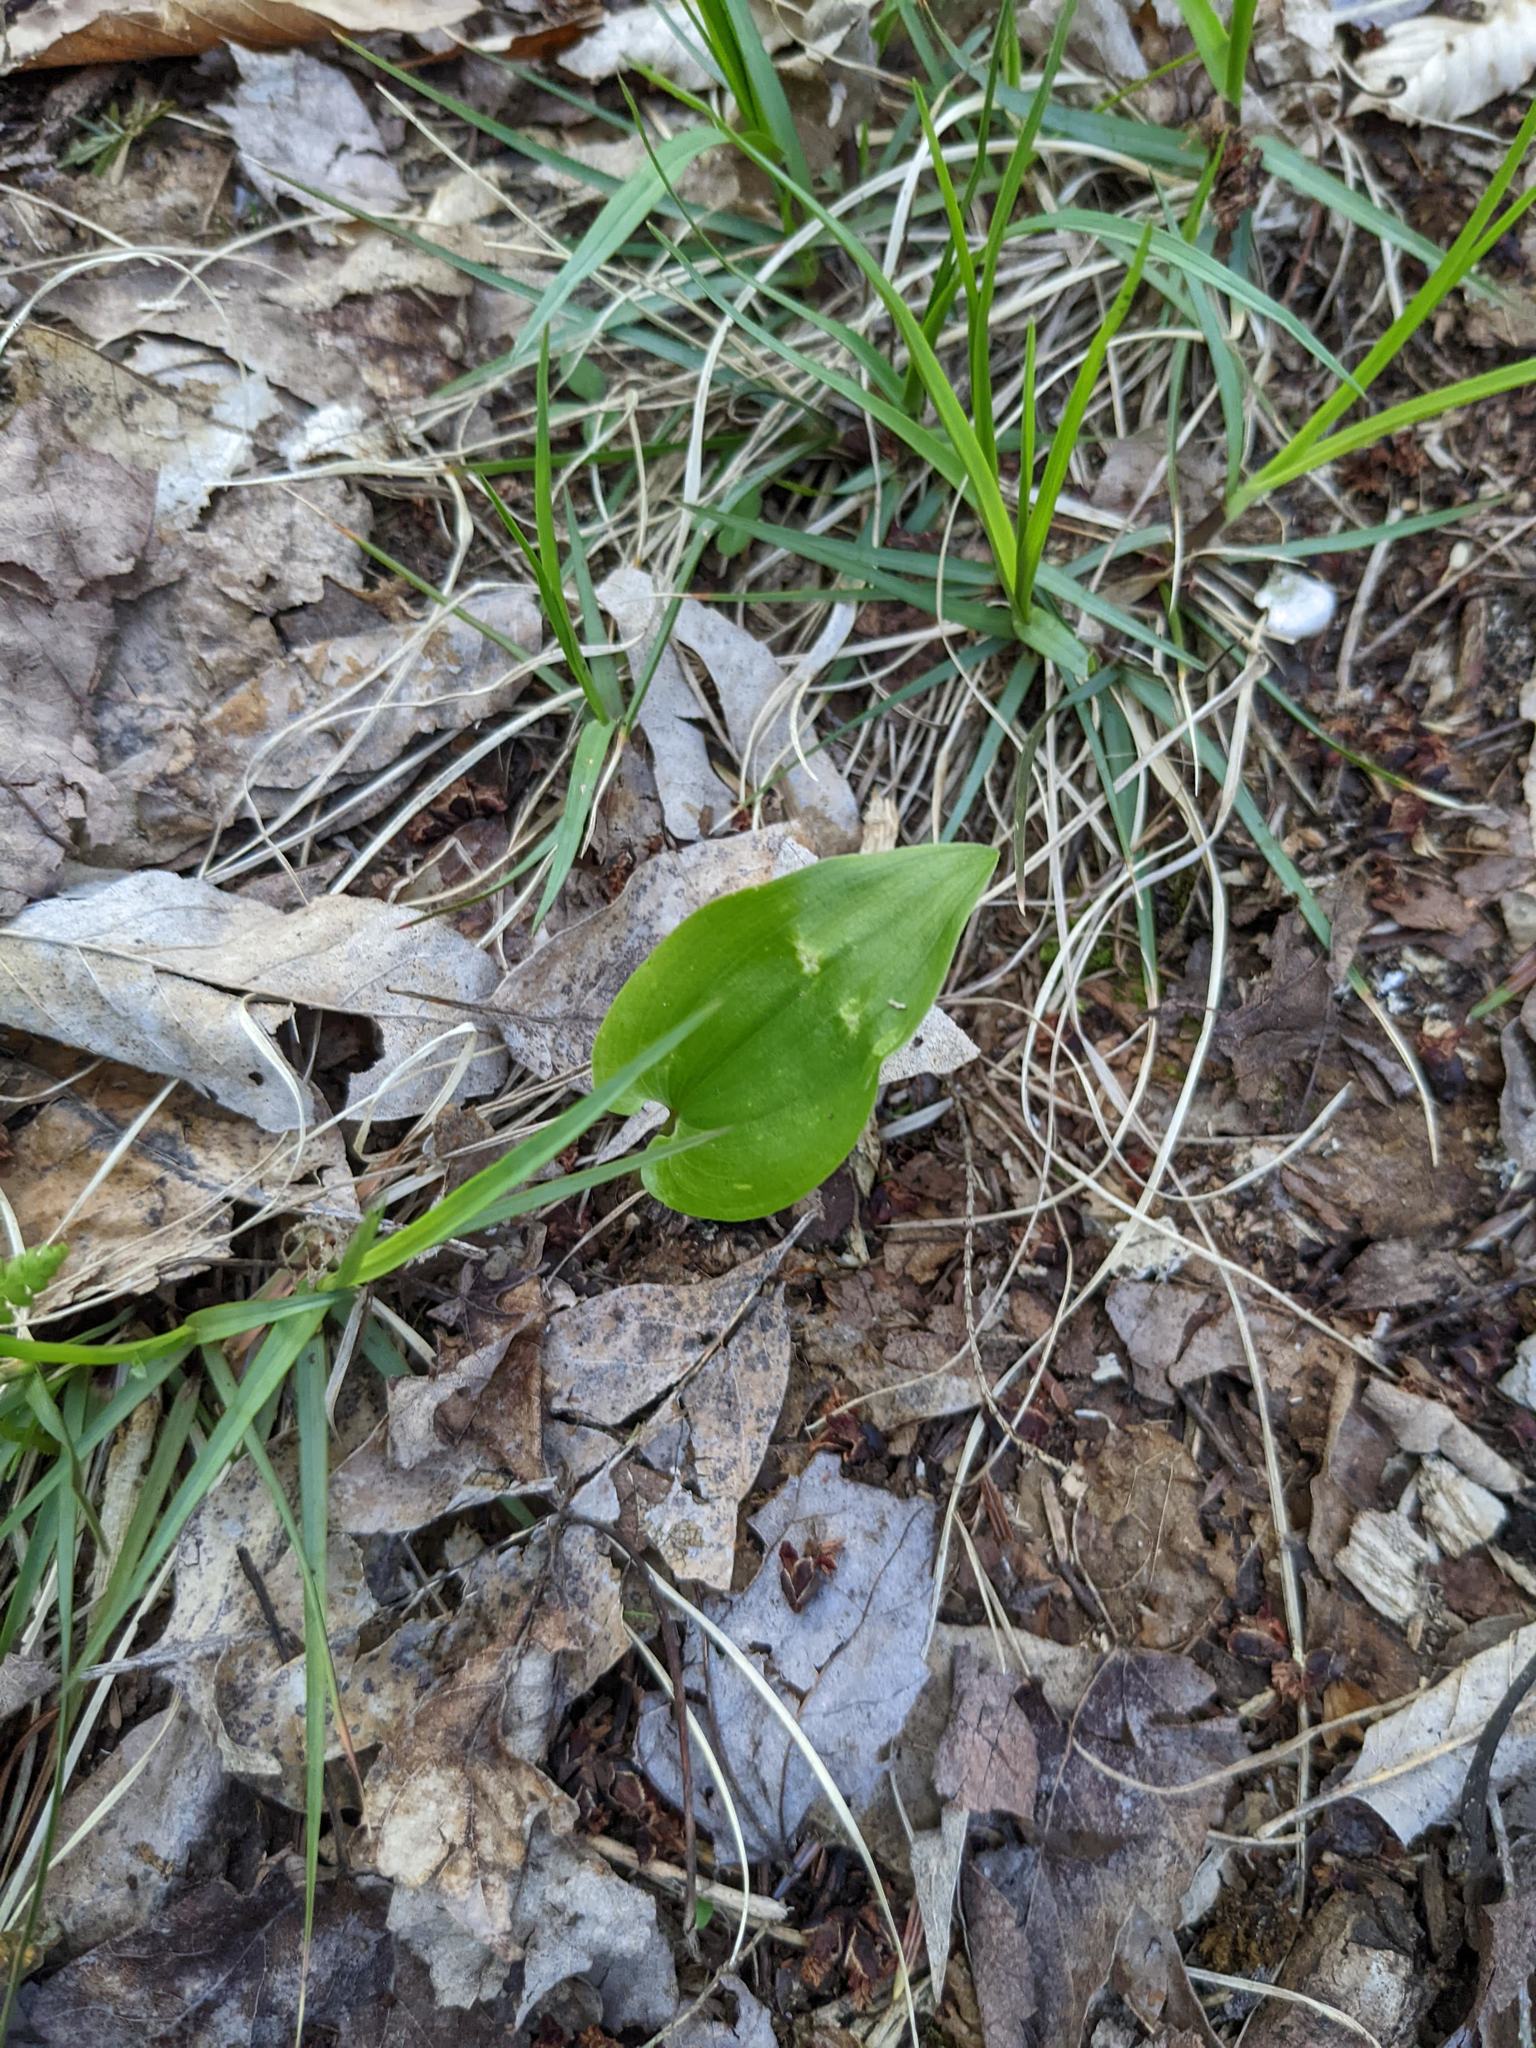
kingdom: Plantae
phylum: Tracheophyta
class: Liliopsida
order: Asparagales
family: Asparagaceae
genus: Maianthemum
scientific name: Maianthemum canadense
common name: False lily-of-the-valley
